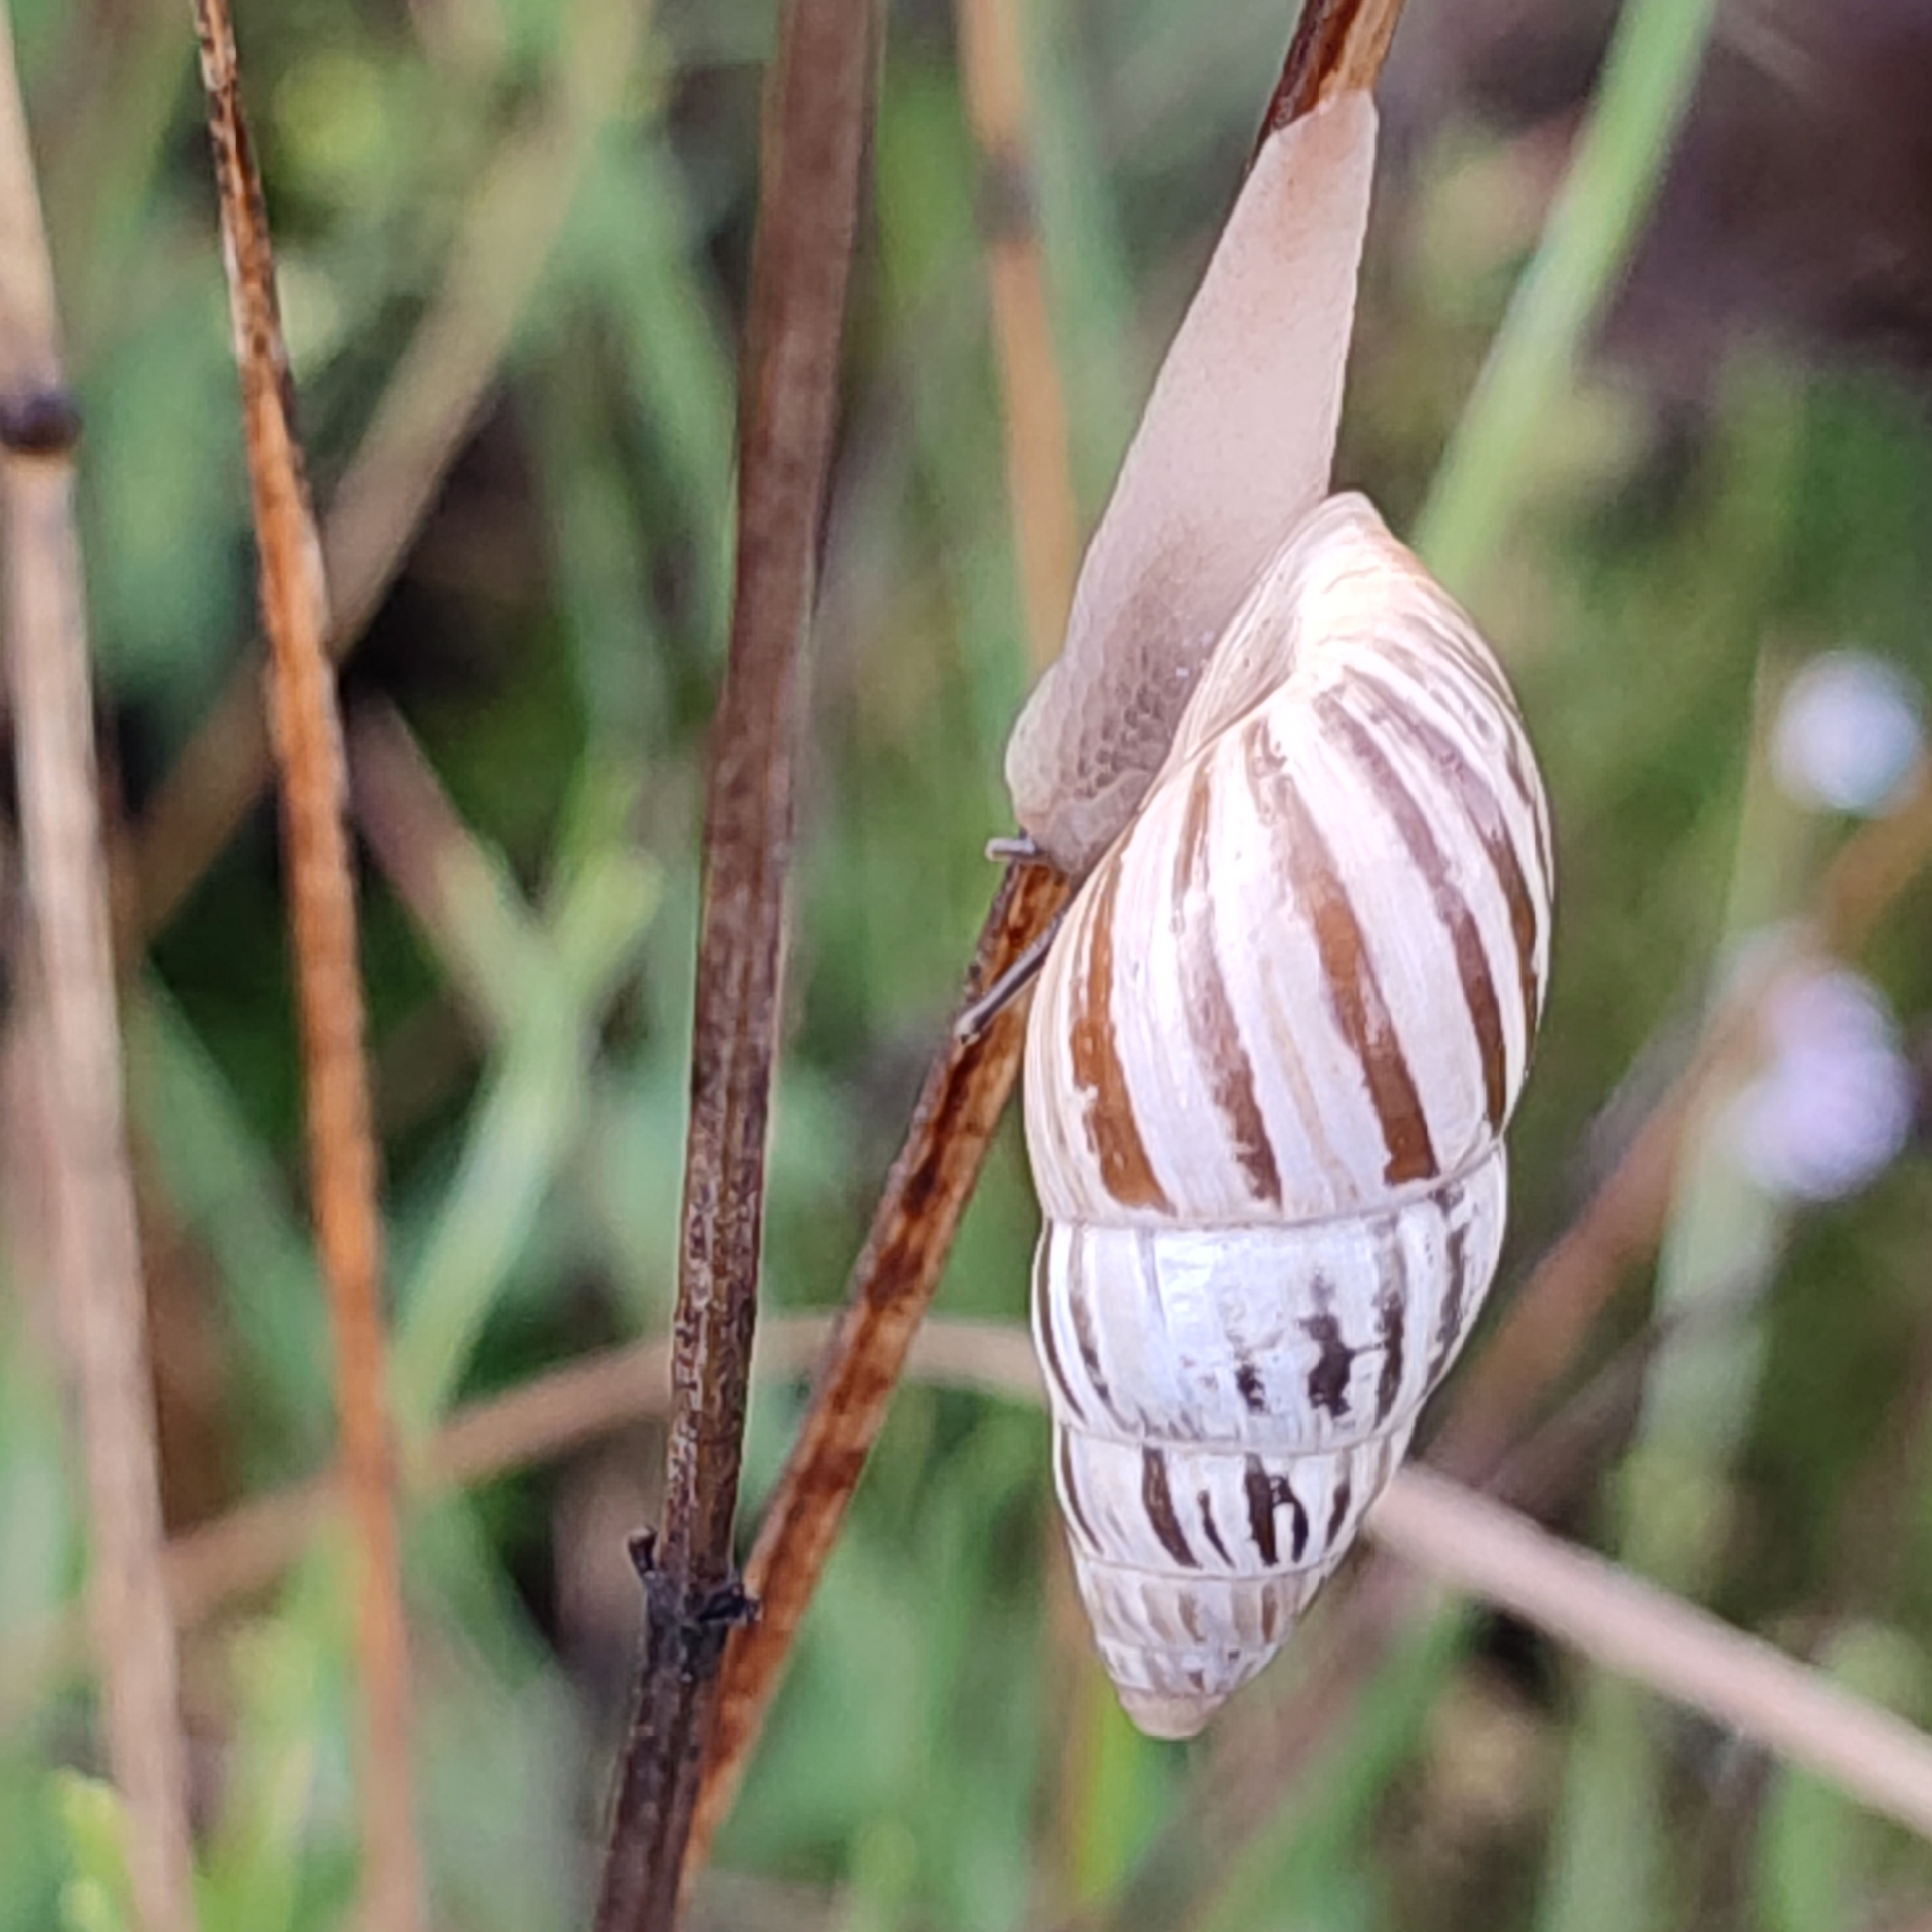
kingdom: Animalia
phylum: Mollusca
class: Gastropoda
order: Stylommatophora
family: Enidae
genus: Zebrina
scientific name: Zebrina detrita
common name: Large bulin
